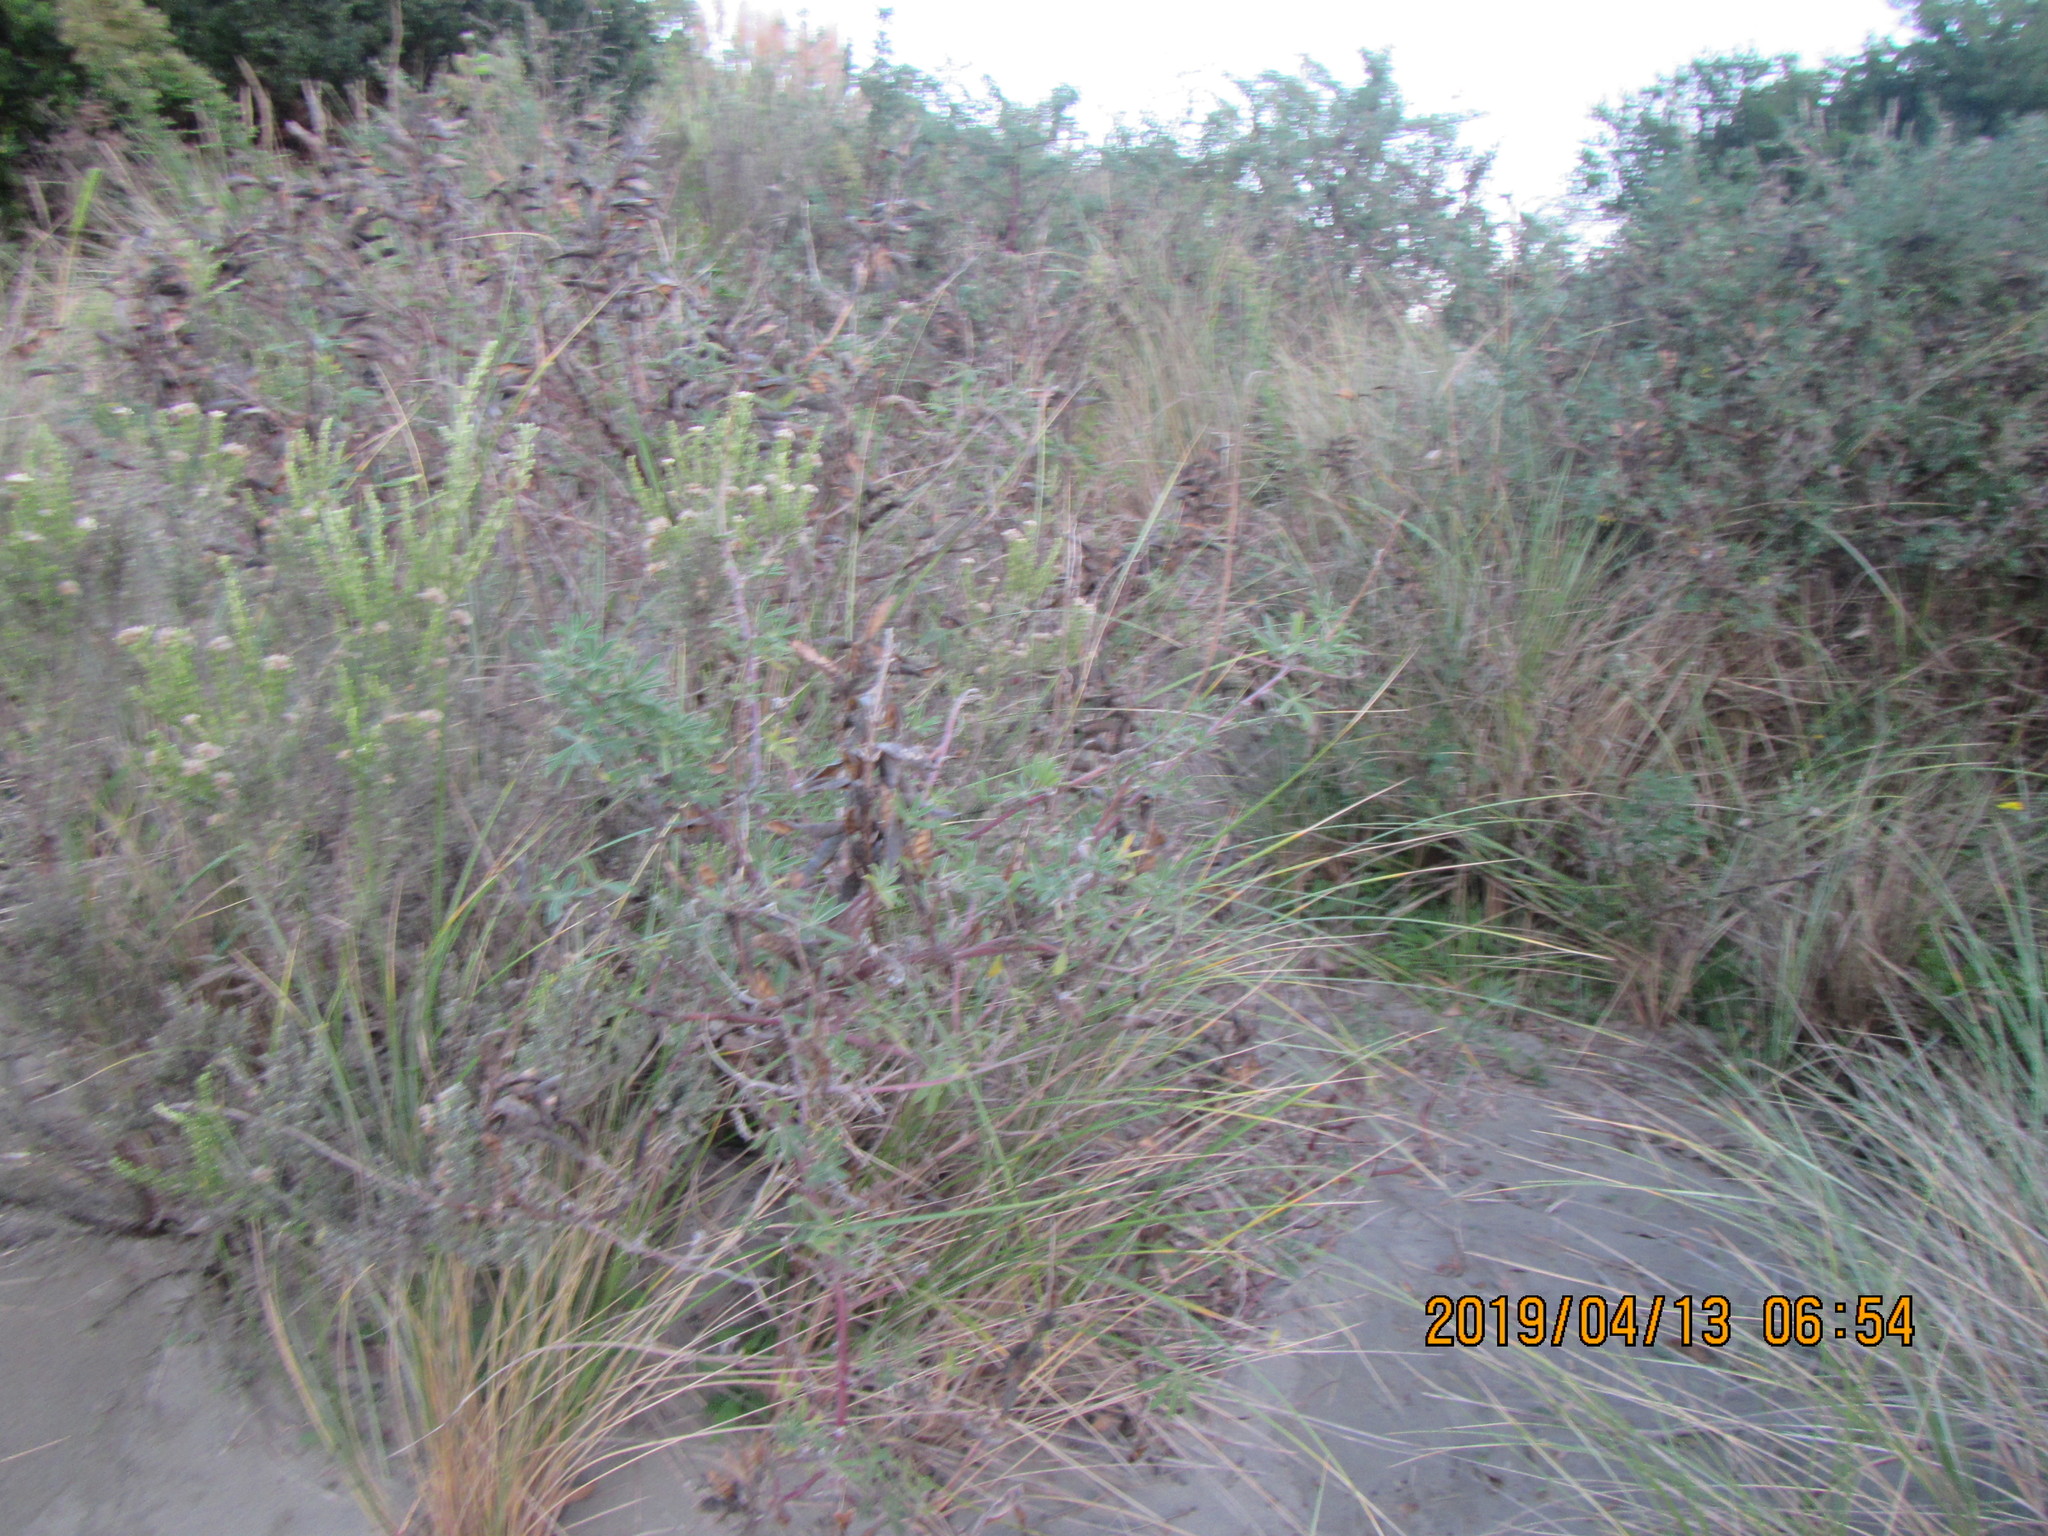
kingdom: Plantae
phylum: Tracheophyta
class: Magnoliopsida
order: Asterales
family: Asteraceae
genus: Ozothamnus
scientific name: Ozothamnus leptophyllus
